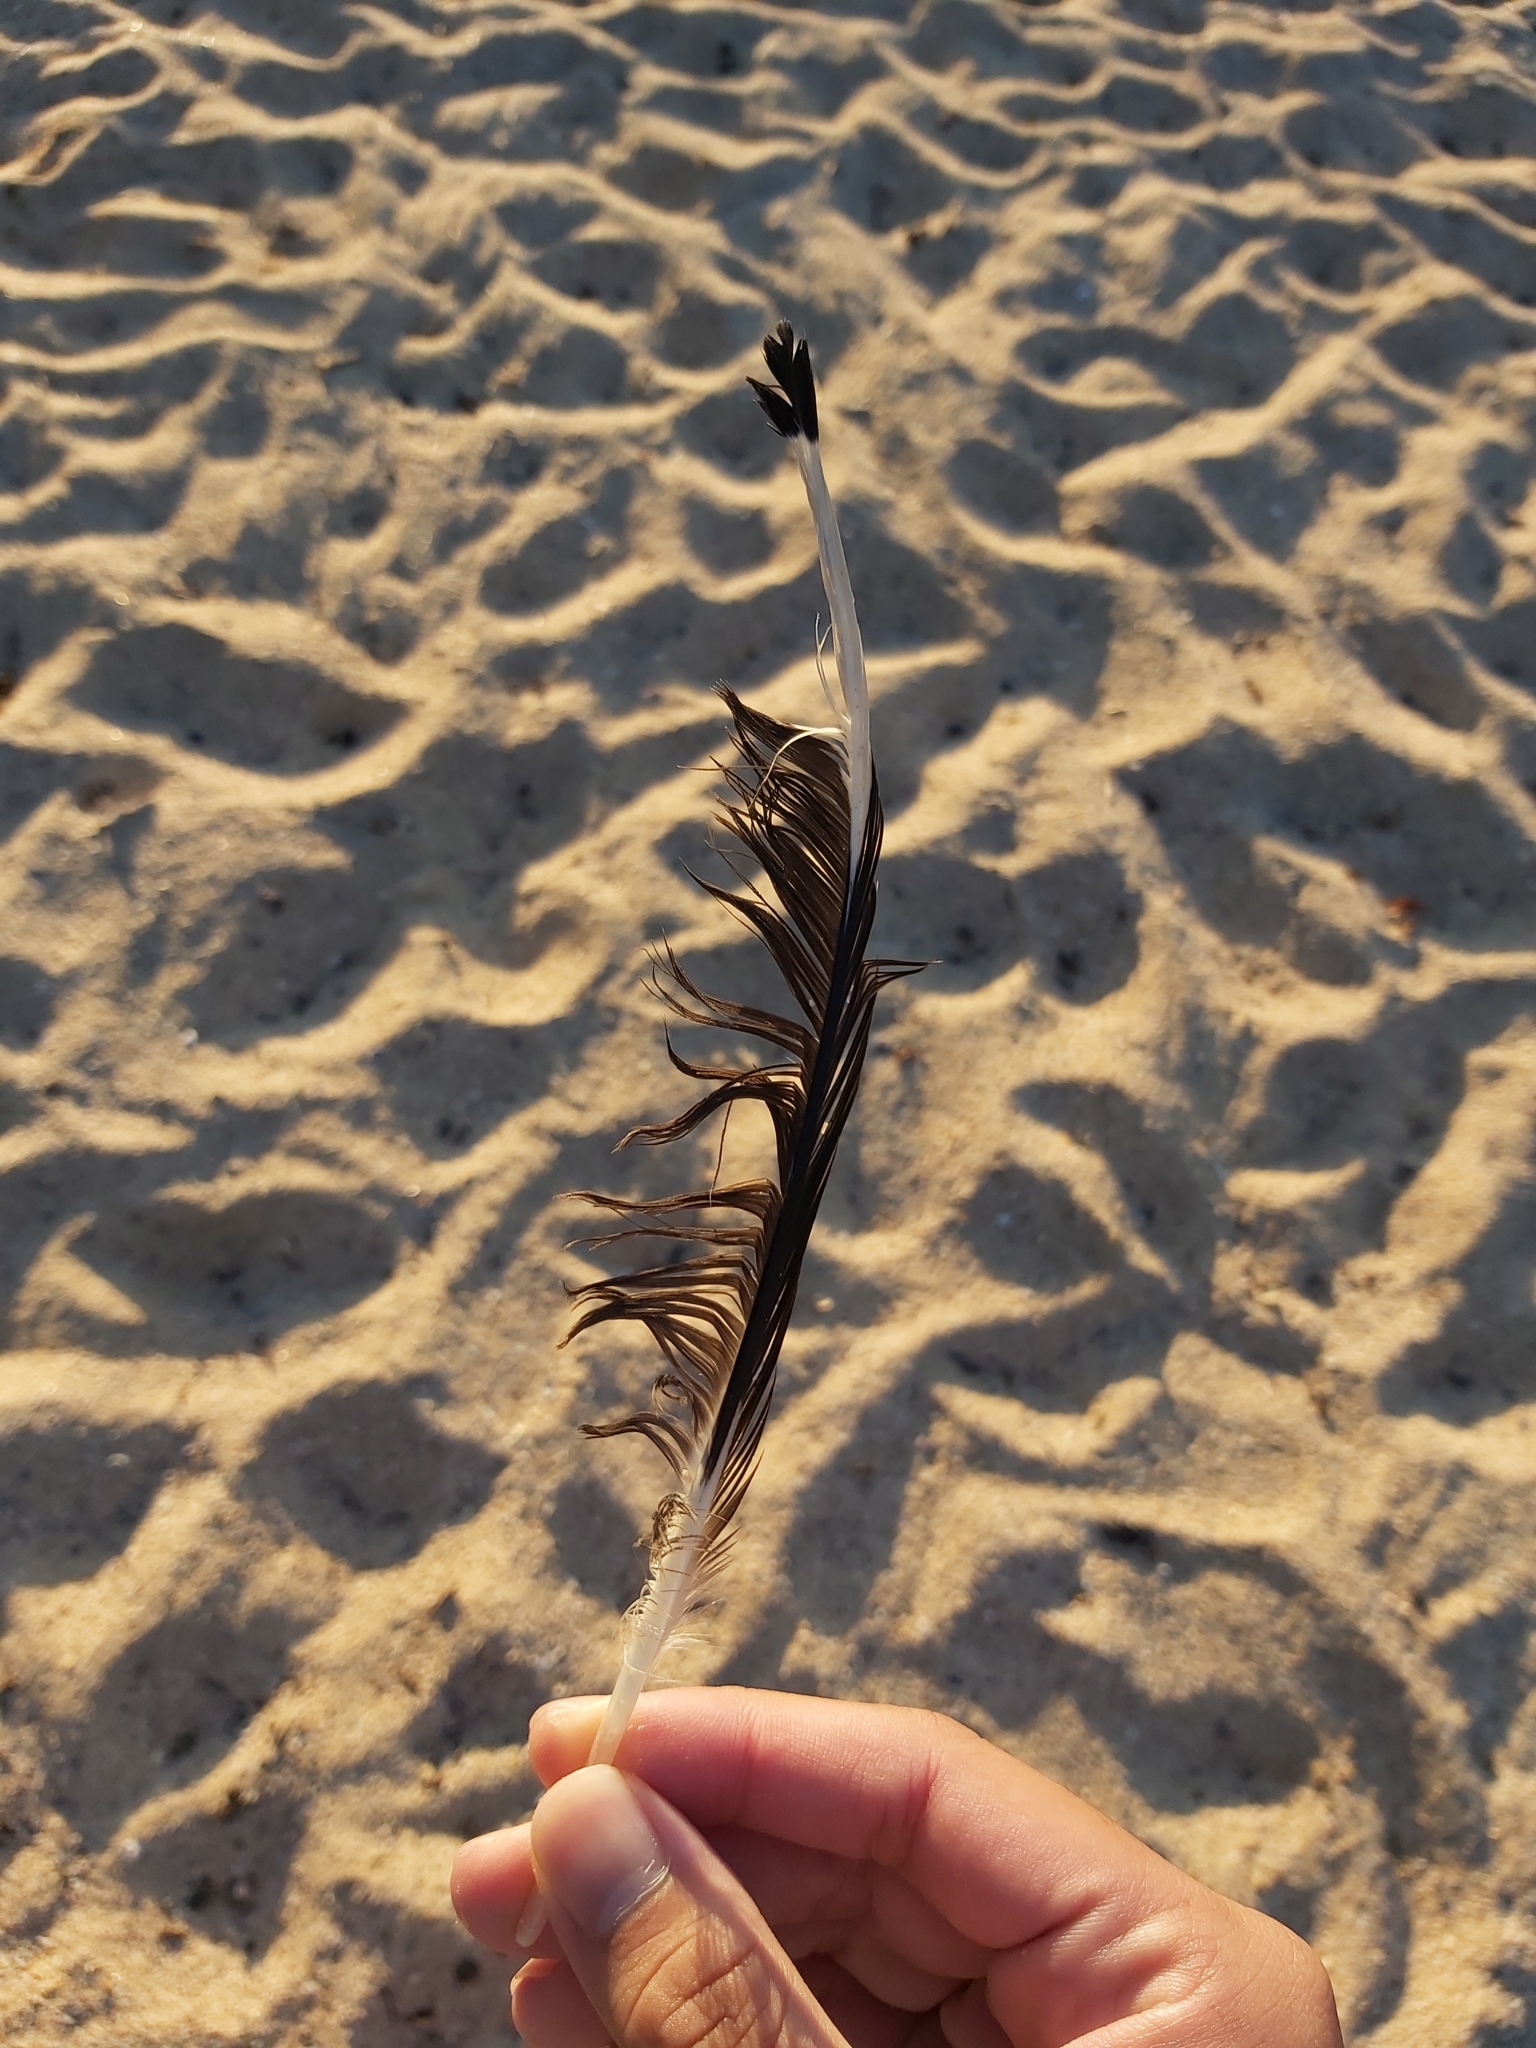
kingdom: Animalia
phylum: Chordata
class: Aves
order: Charadriiformes
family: Laridae
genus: Chroicocephalus
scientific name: Chroicocephalus novaehollandiae
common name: Silver gull
